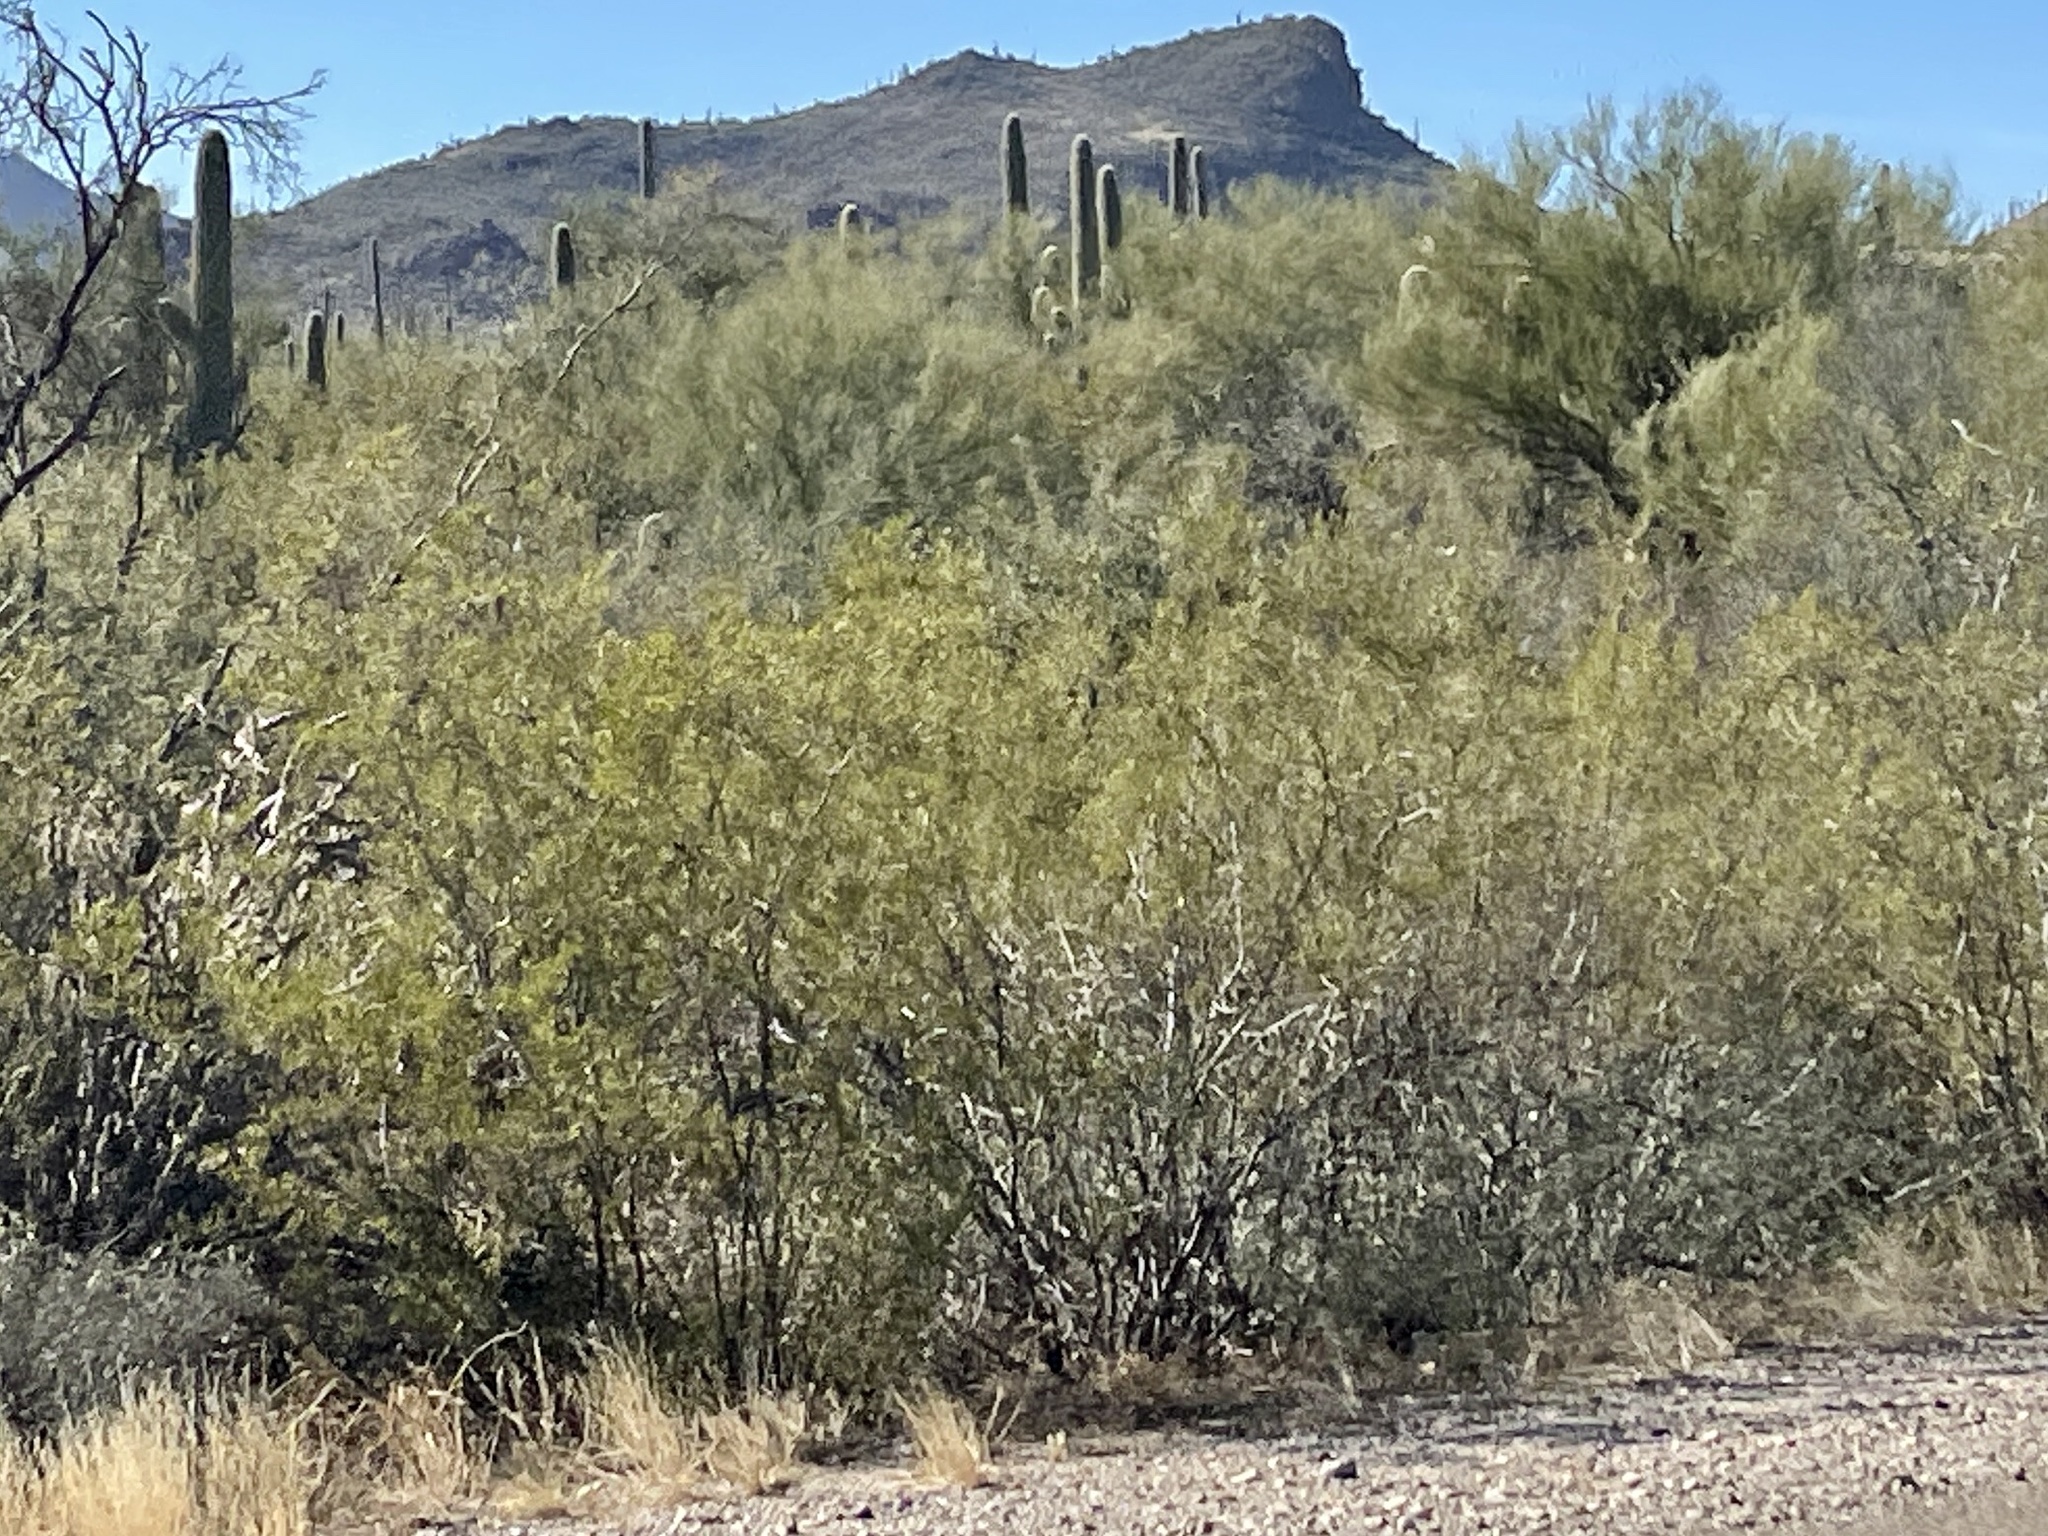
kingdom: Plantae
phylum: Tracheophyta
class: Magnoliopsida
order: Zygophyllales
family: Zygophyllaceae
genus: Larrea
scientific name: Larrea tridentata
